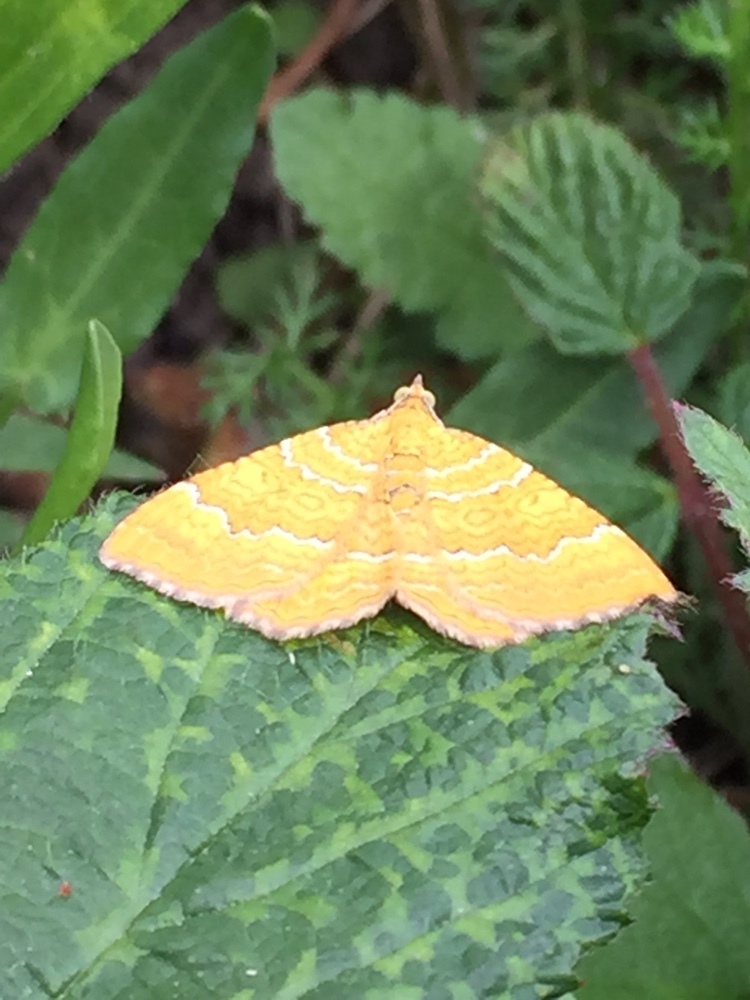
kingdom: Animalia
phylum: Arthropoda
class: Insecta
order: Lepidoptera
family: Geometridae
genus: Camptogramma
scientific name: Camptogramma bilineata
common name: Yellow shell
